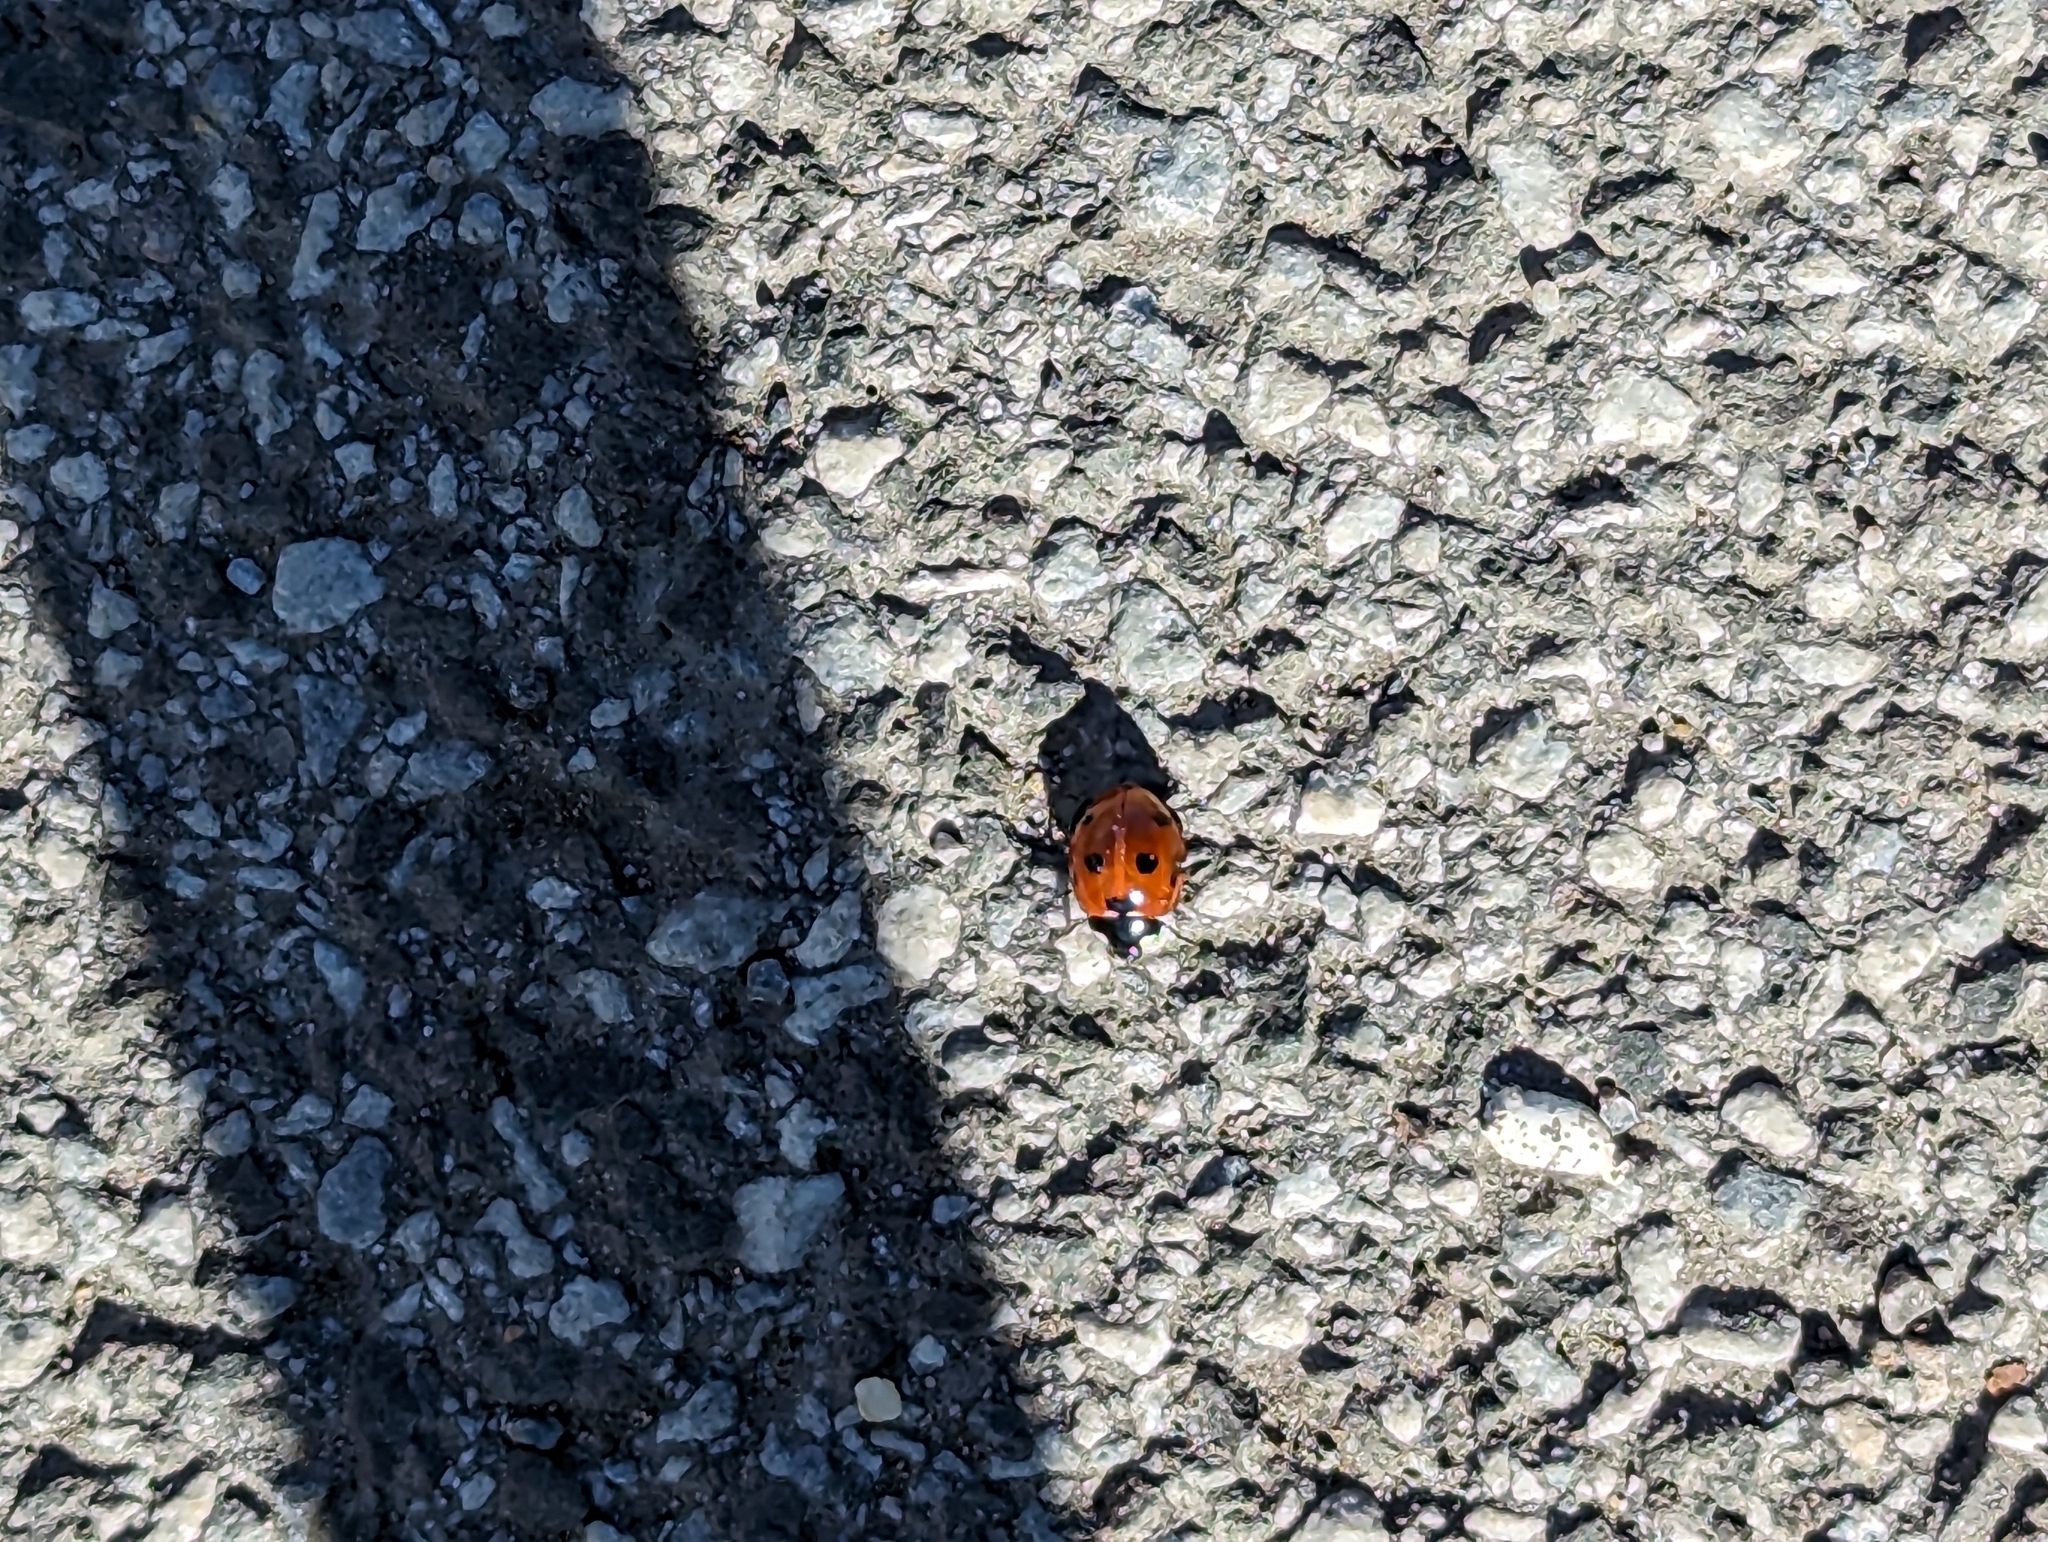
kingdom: Animalia
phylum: Arthropoda
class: Insecta
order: Coleoptera
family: Coccinellidae
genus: Coccinella
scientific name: Coccinella septempunctata
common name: Sevenspotted lady beetle
